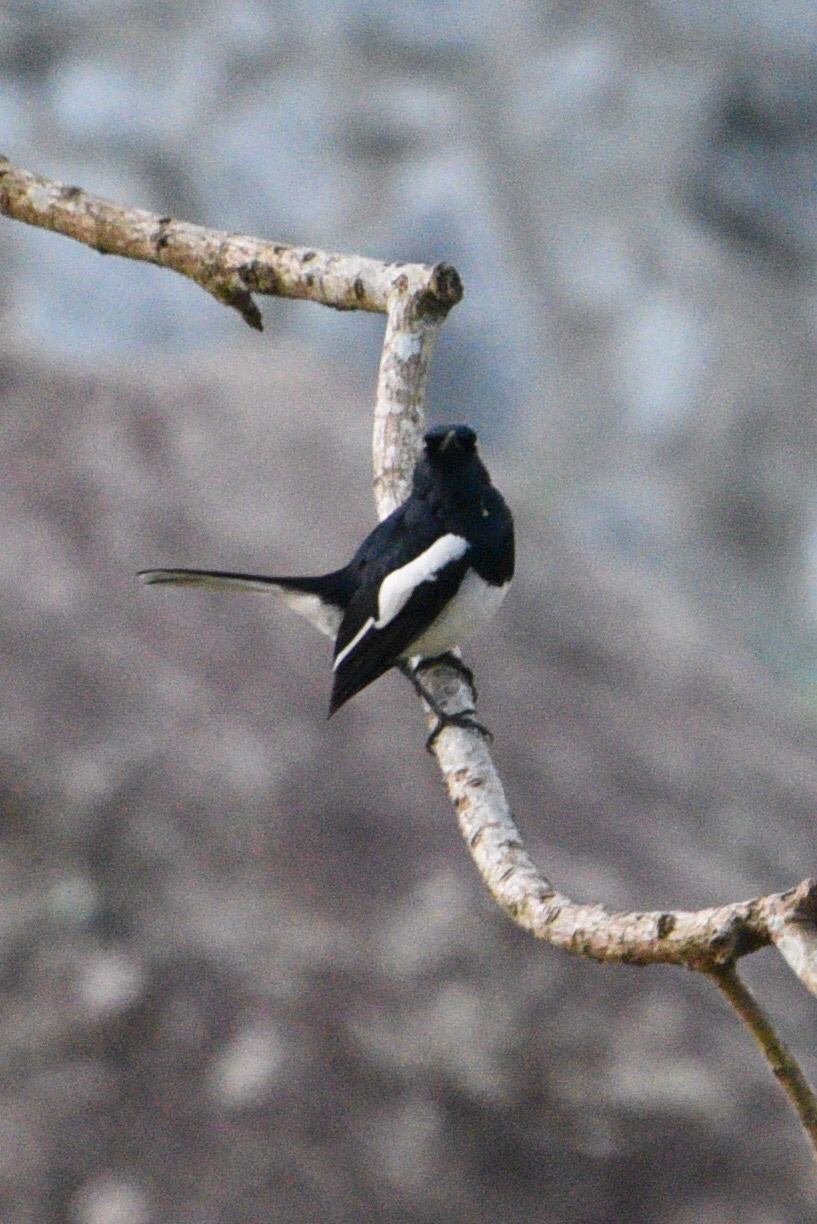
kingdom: Animalia
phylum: Chordata
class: Aves
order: Passeriformes
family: Muscicapidae
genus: Copsychus
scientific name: Copsychus saularis
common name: Oriental magpie-robin
